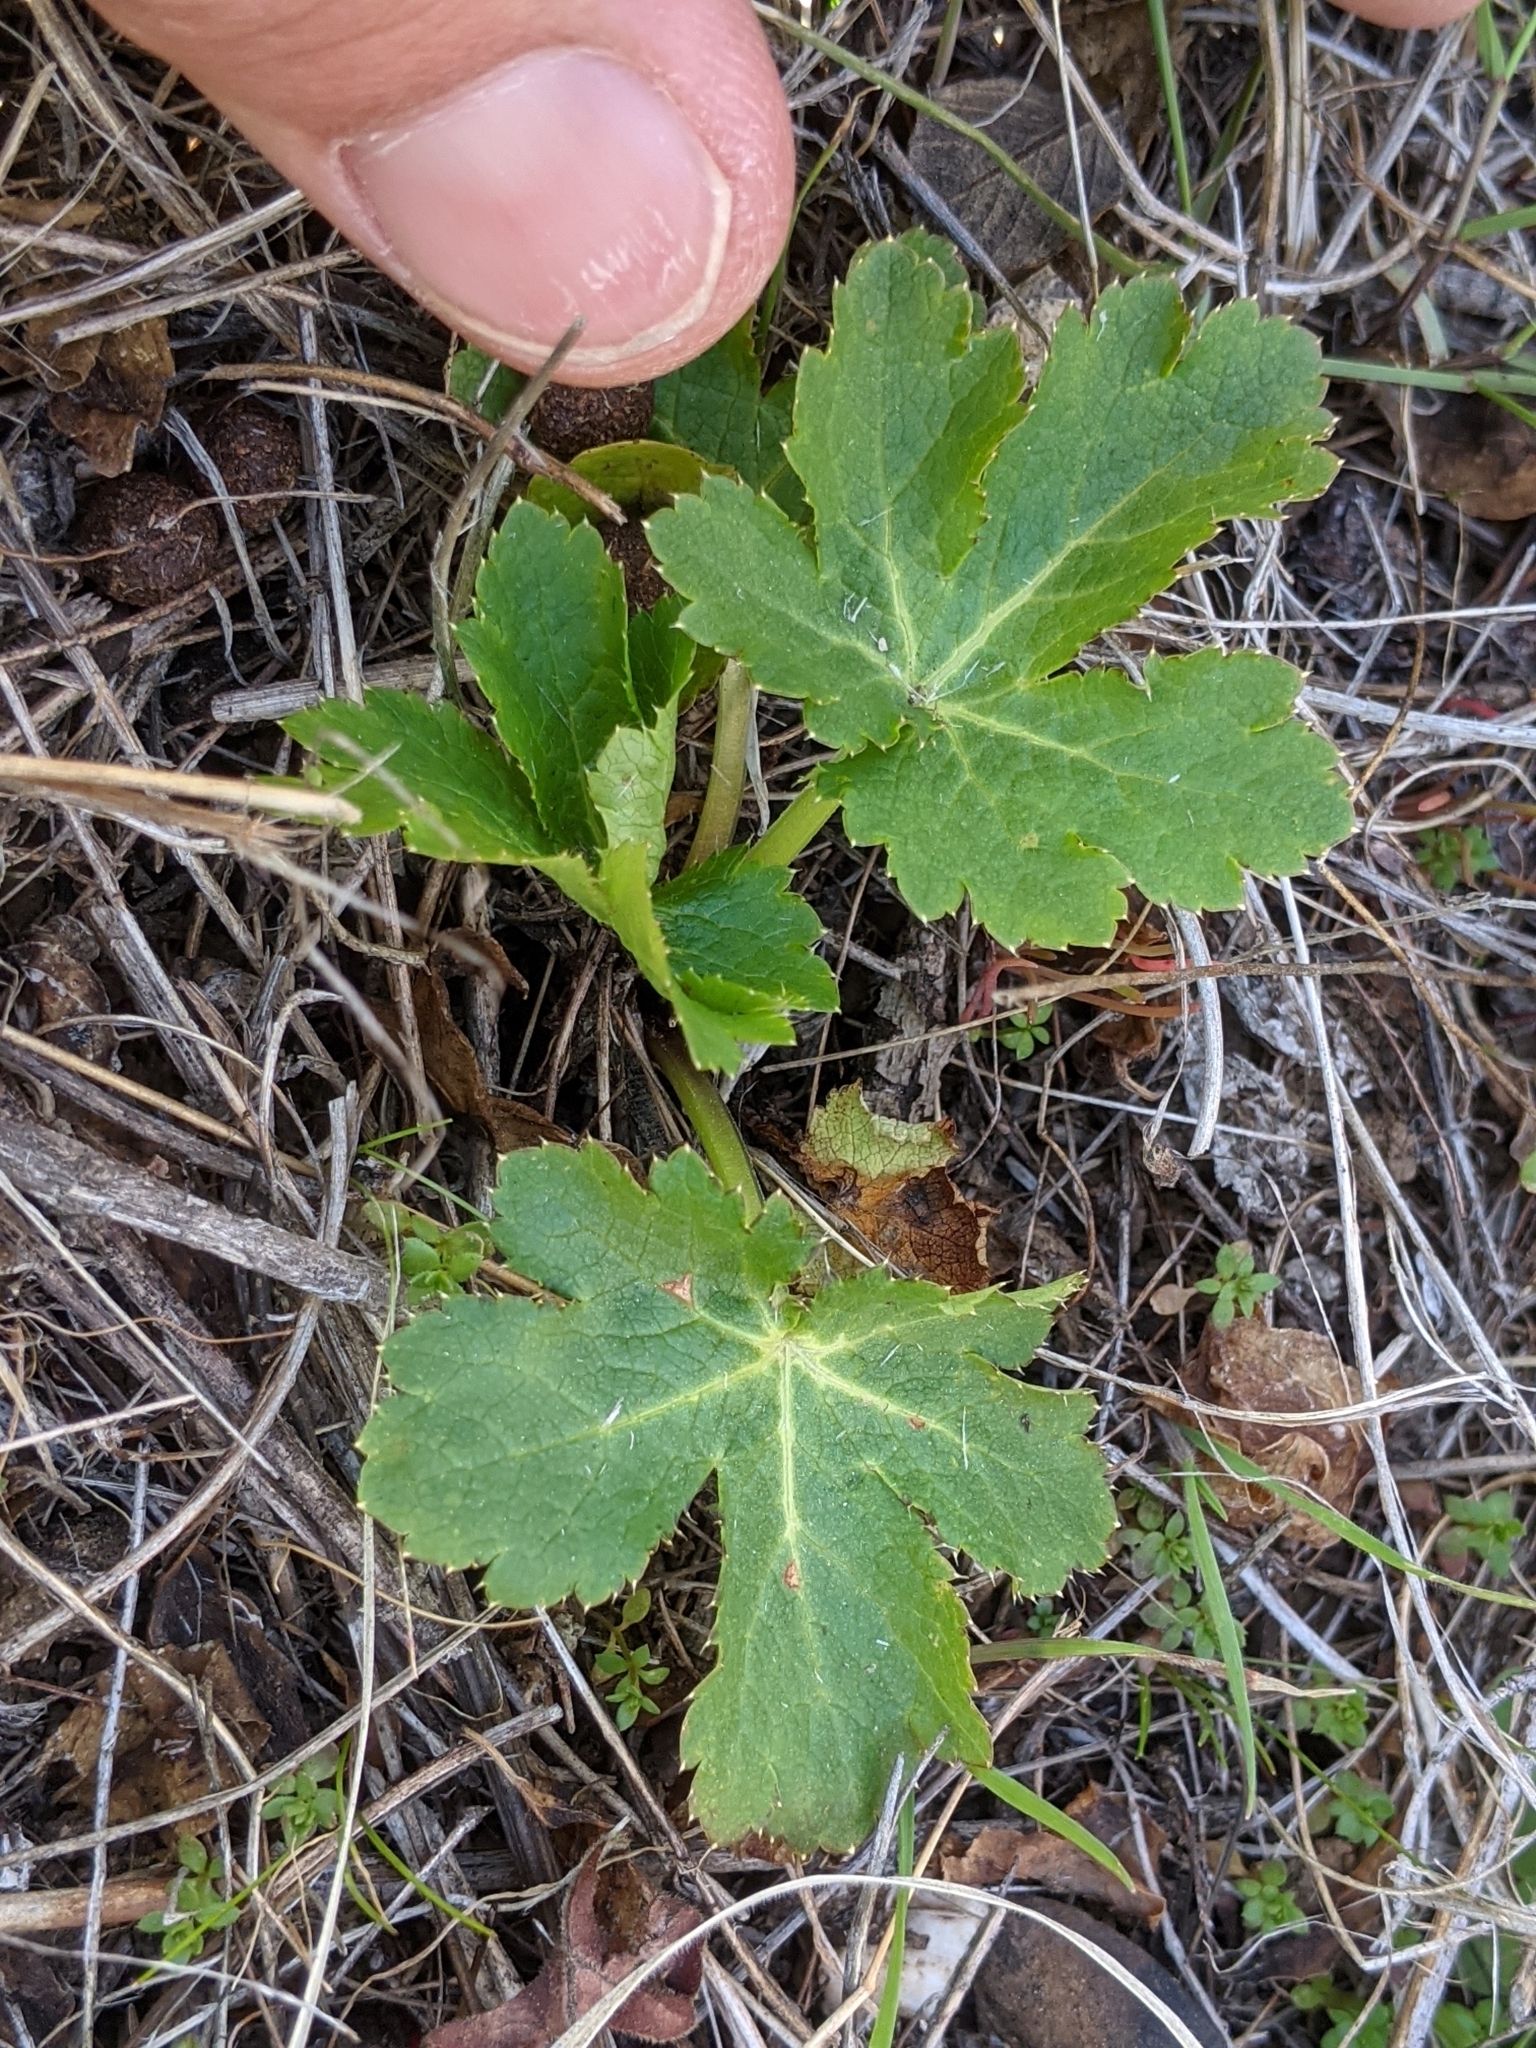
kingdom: Plantae
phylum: Tracheophyta
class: Magnoliopsida
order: Apiales
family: Apiaceae
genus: Sanicula
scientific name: Sanicula crassicaulis
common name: Western snakeroot
